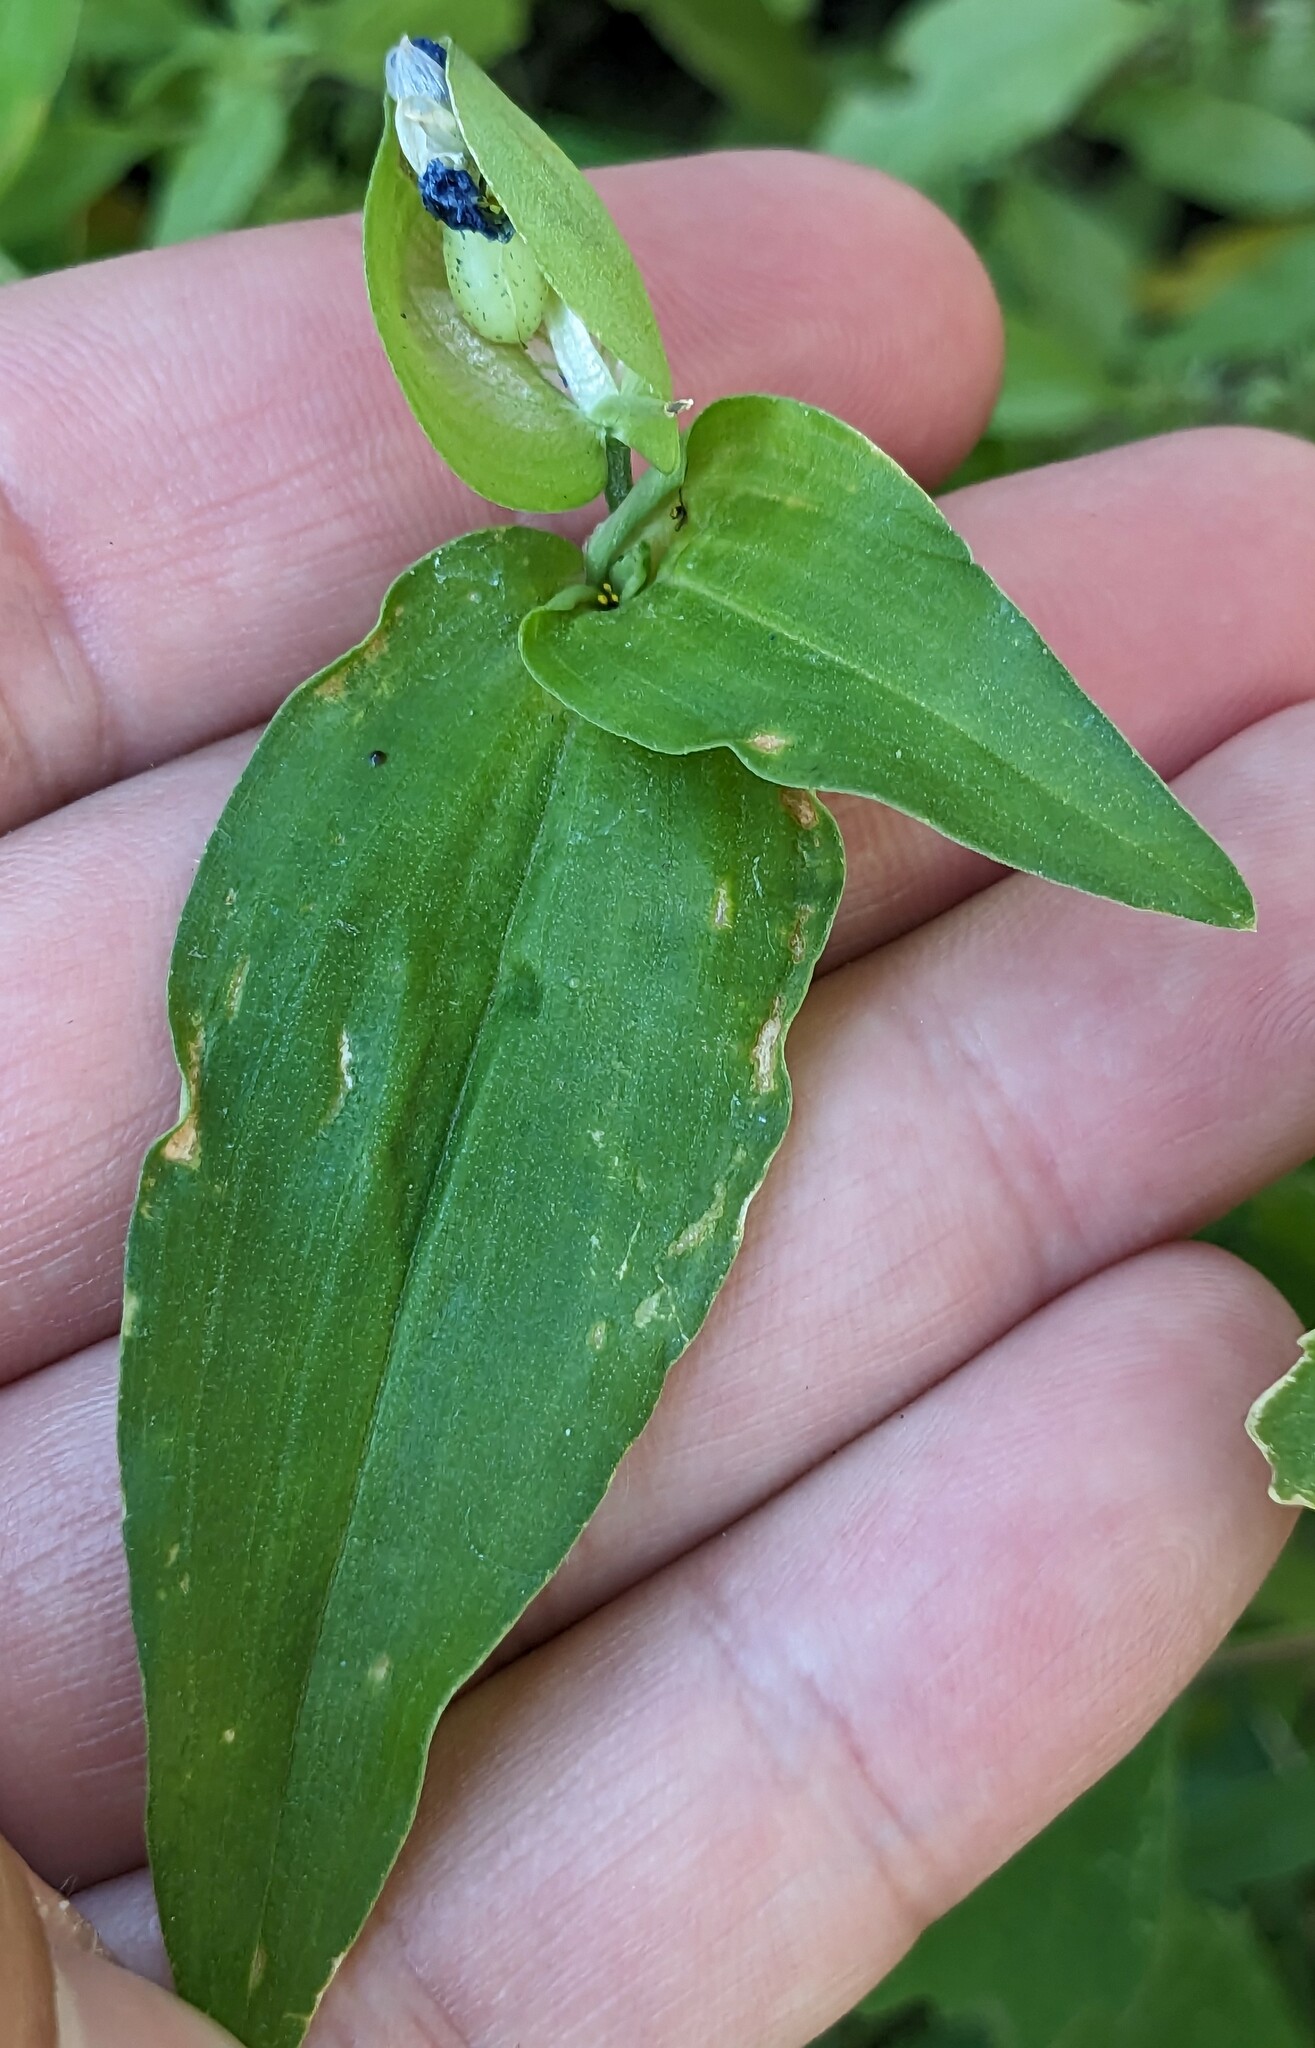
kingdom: Plantae
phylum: Tracheophyta
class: Liliopsida
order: Commelinales
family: Commelinaceae
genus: Commelina
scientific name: Commelina communis
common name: Asiatic dayflower
